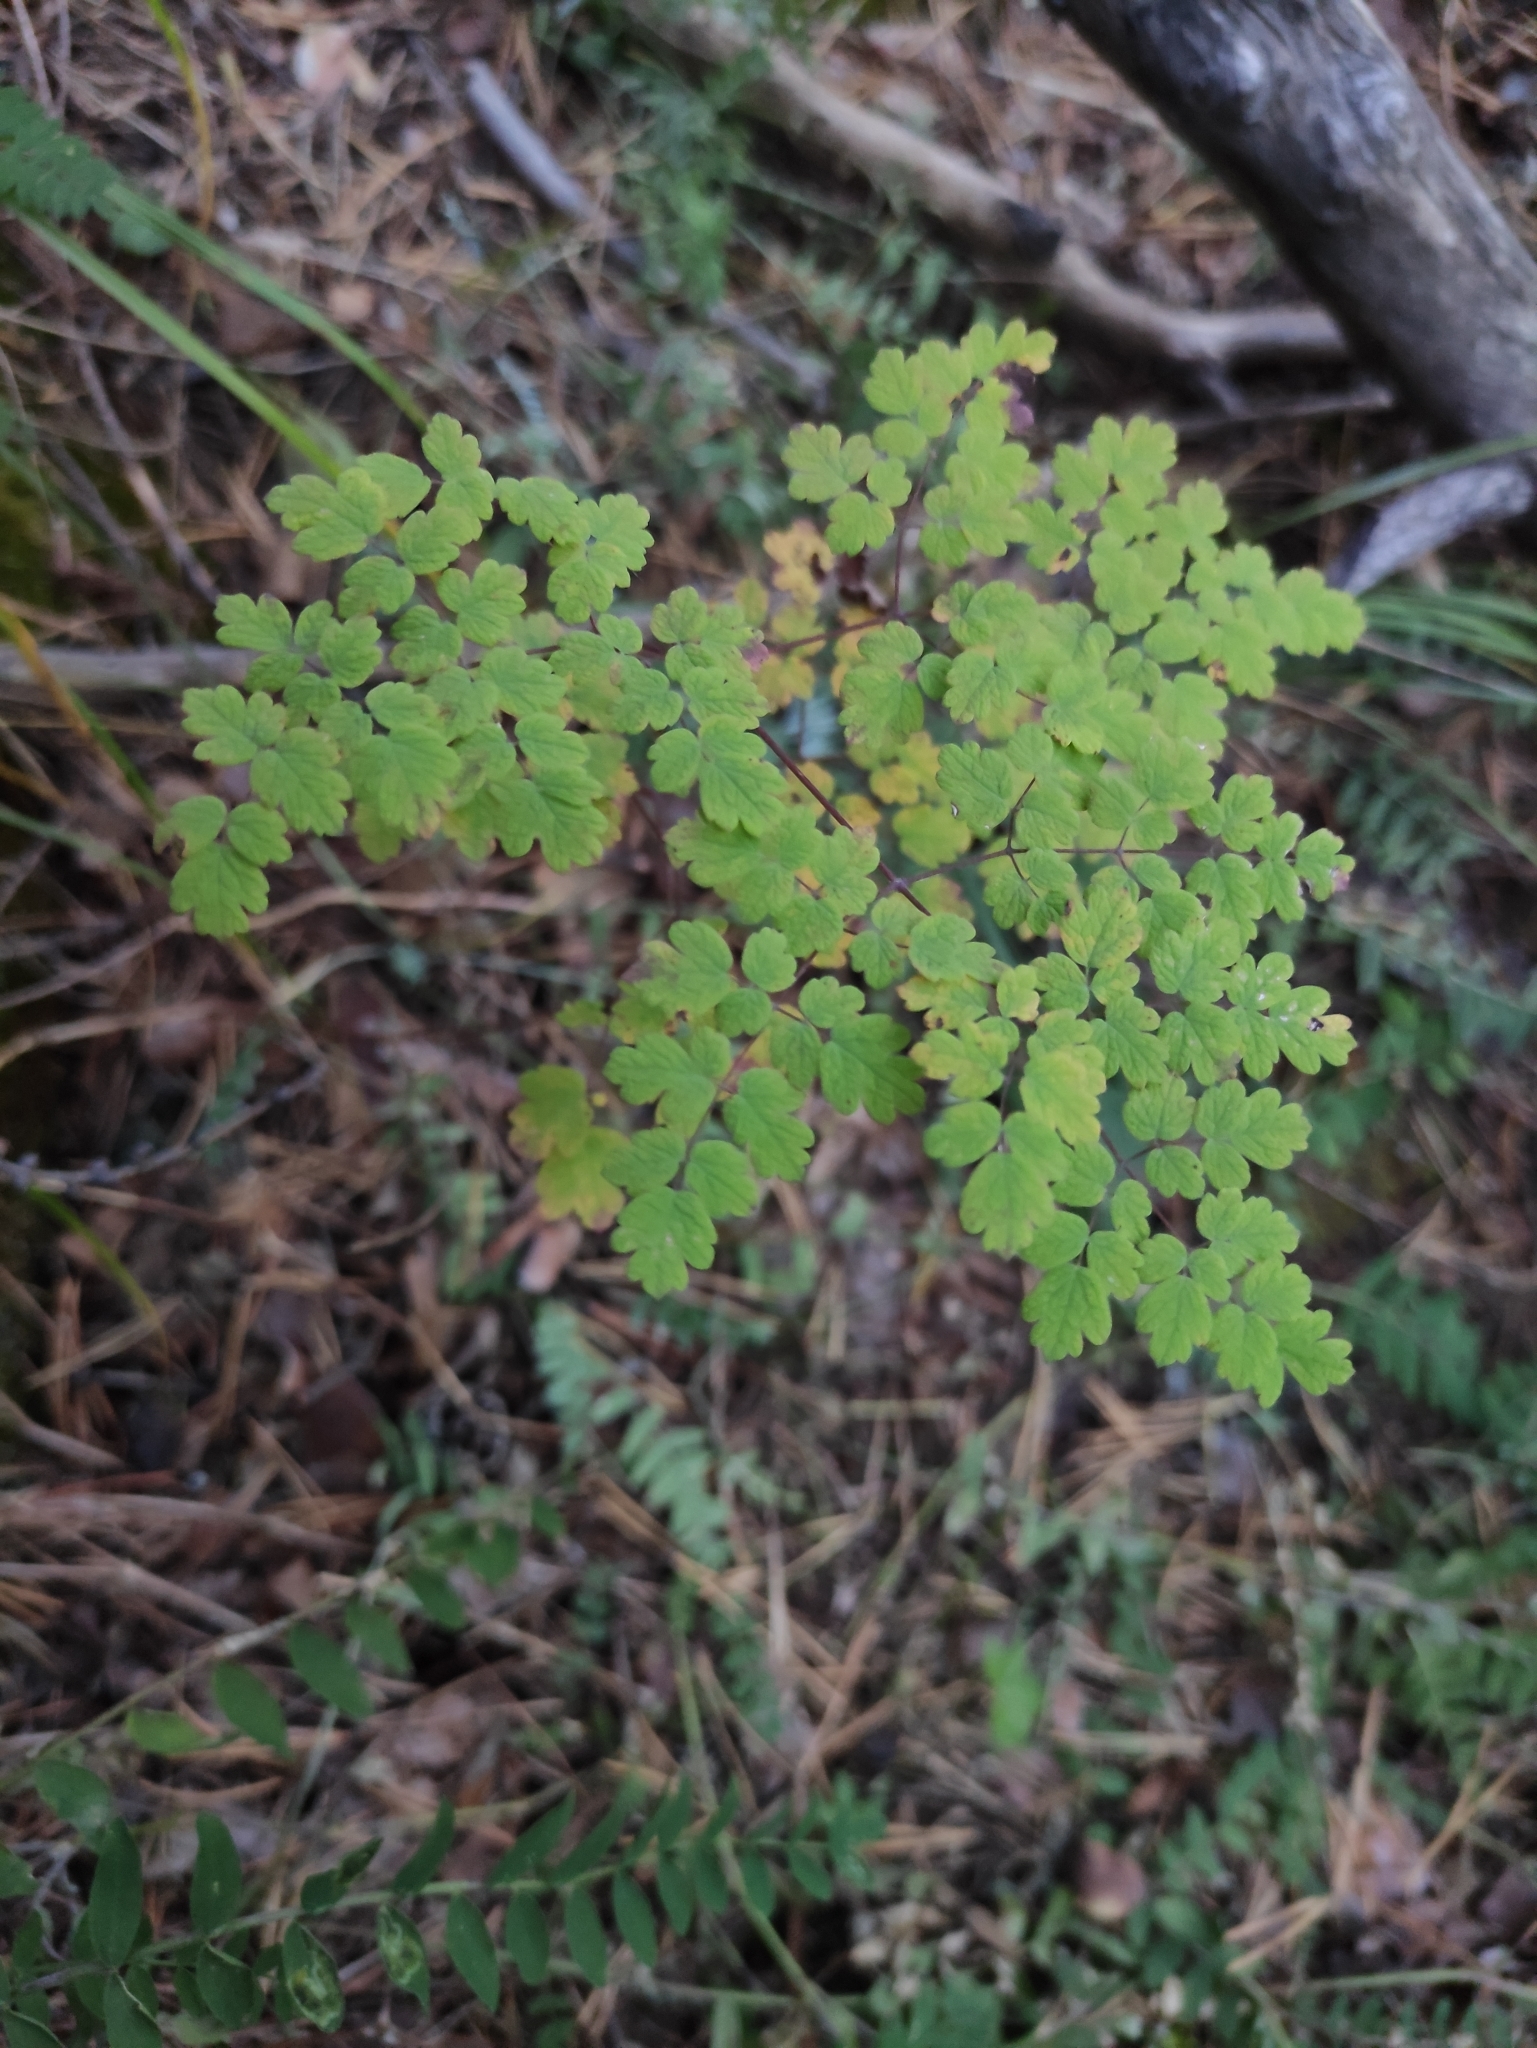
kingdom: Plantae
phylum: Tracheophyta
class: Magnoliopsida
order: Ranunculales
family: Ranunculaceae
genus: Thalictrum
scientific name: Thalictrum foetidum
